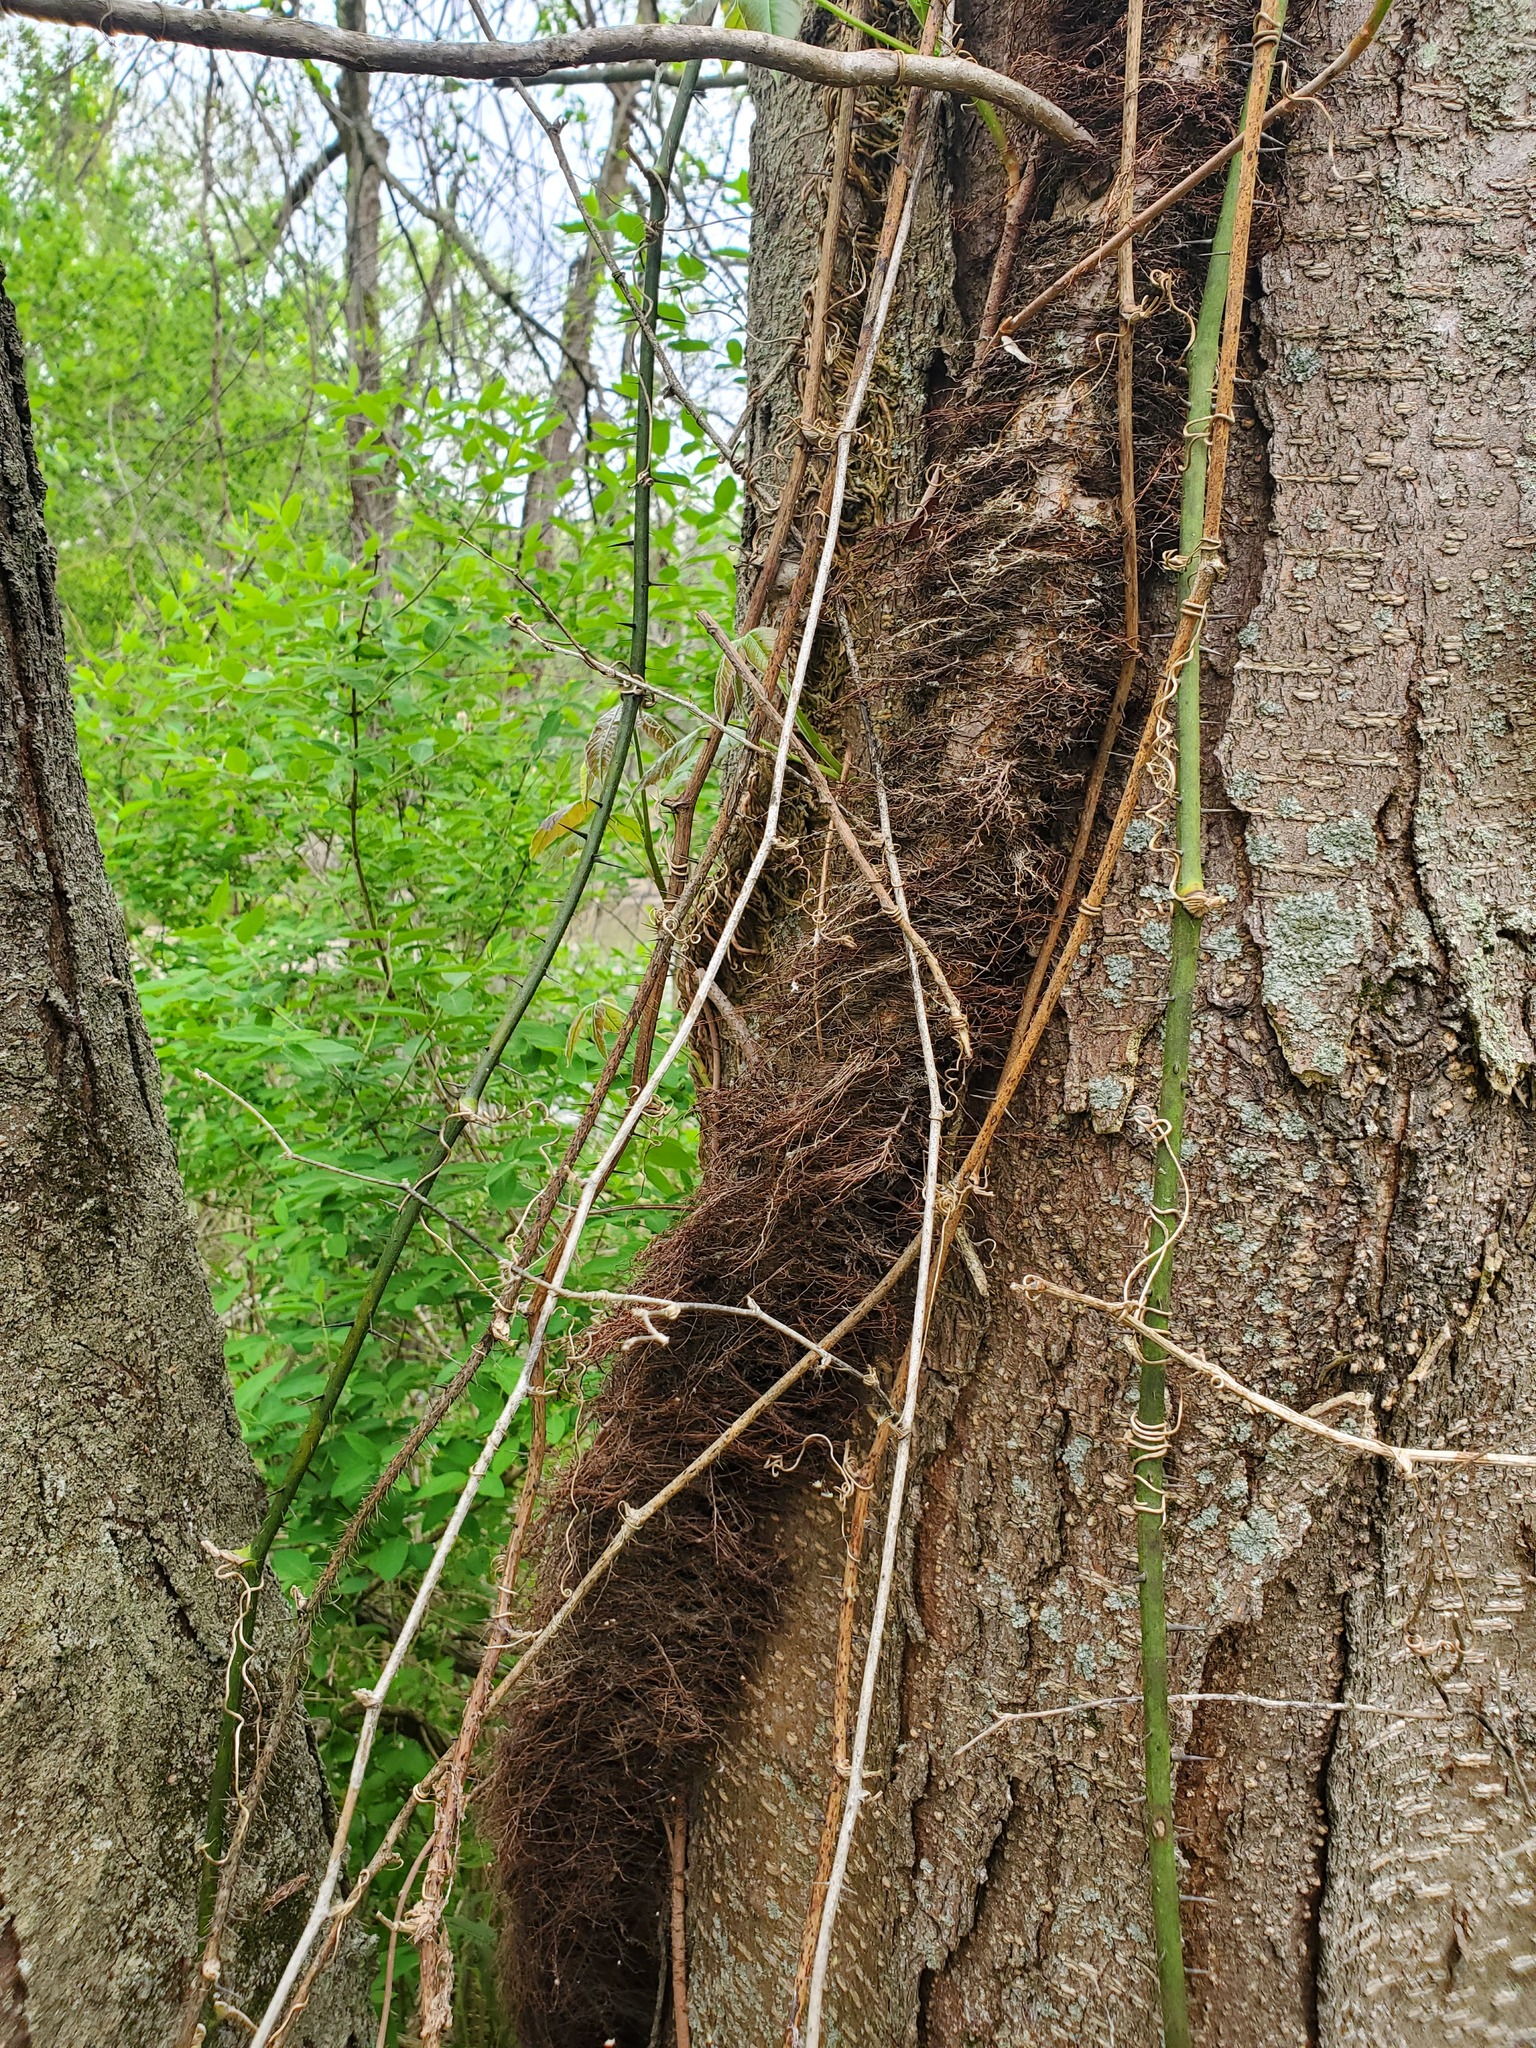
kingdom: Plantae
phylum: Tracheophyta
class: Magnoliopsida
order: Sapindales
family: Anacardiaceae
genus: Toxicodendron
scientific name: Toxicodendron radicans
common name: Poison ivy
